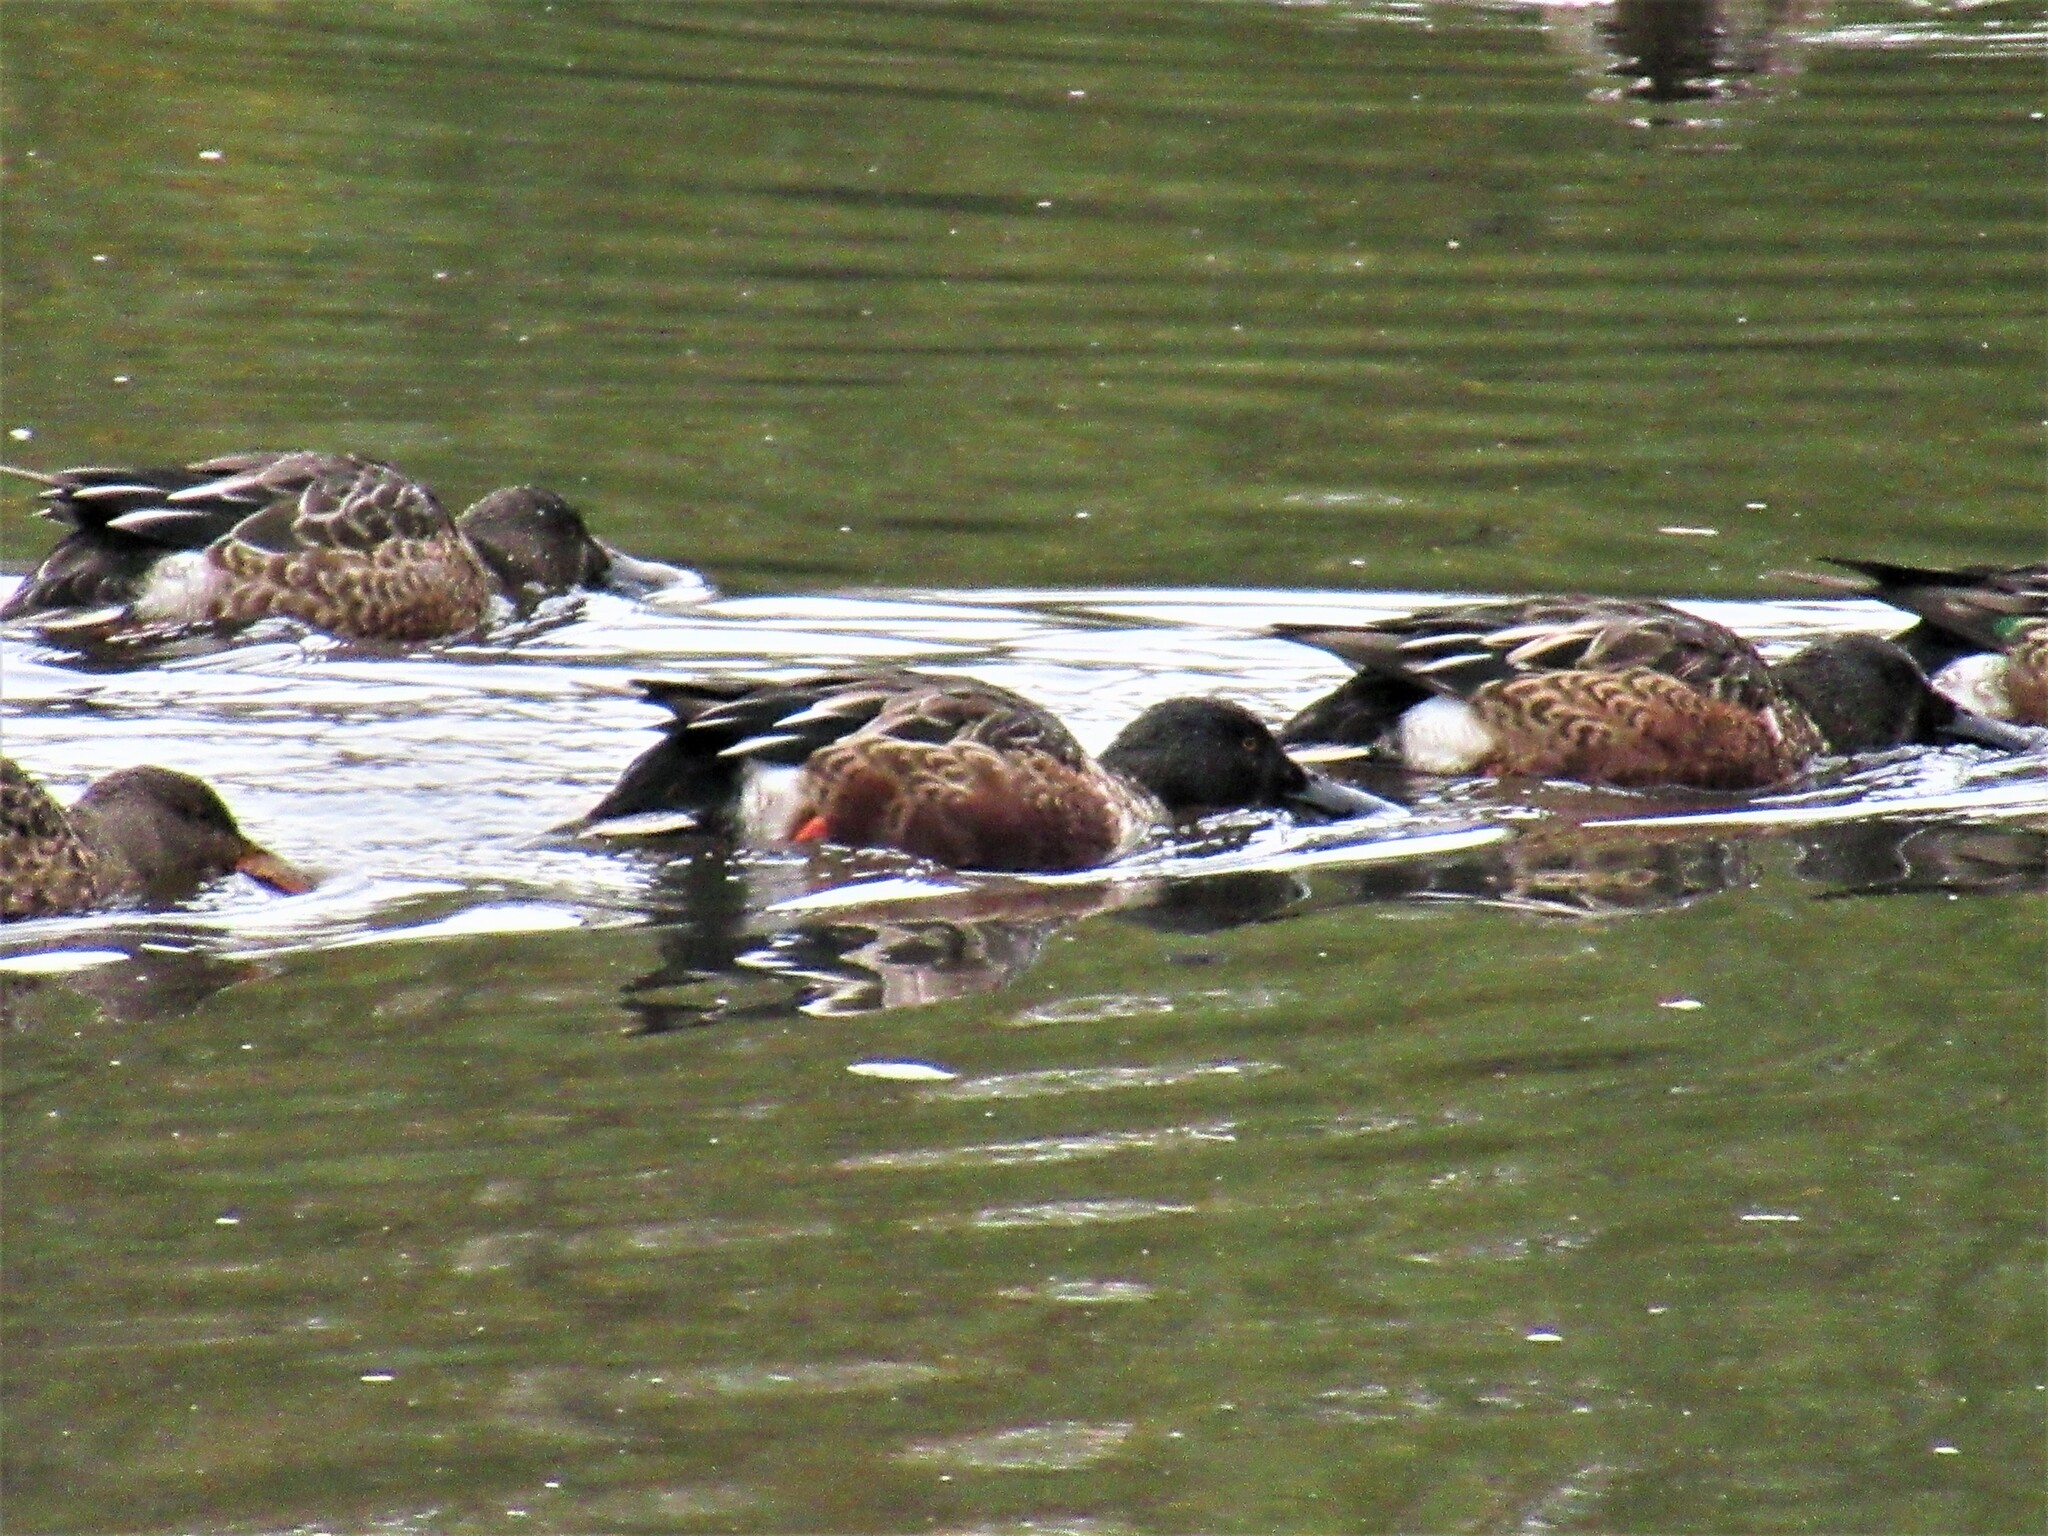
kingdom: Animalia
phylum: Chordata
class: Aves
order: Anseriformes
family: Anatidae
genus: Spatula
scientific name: Spatula clypeata
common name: Northern shoveler
